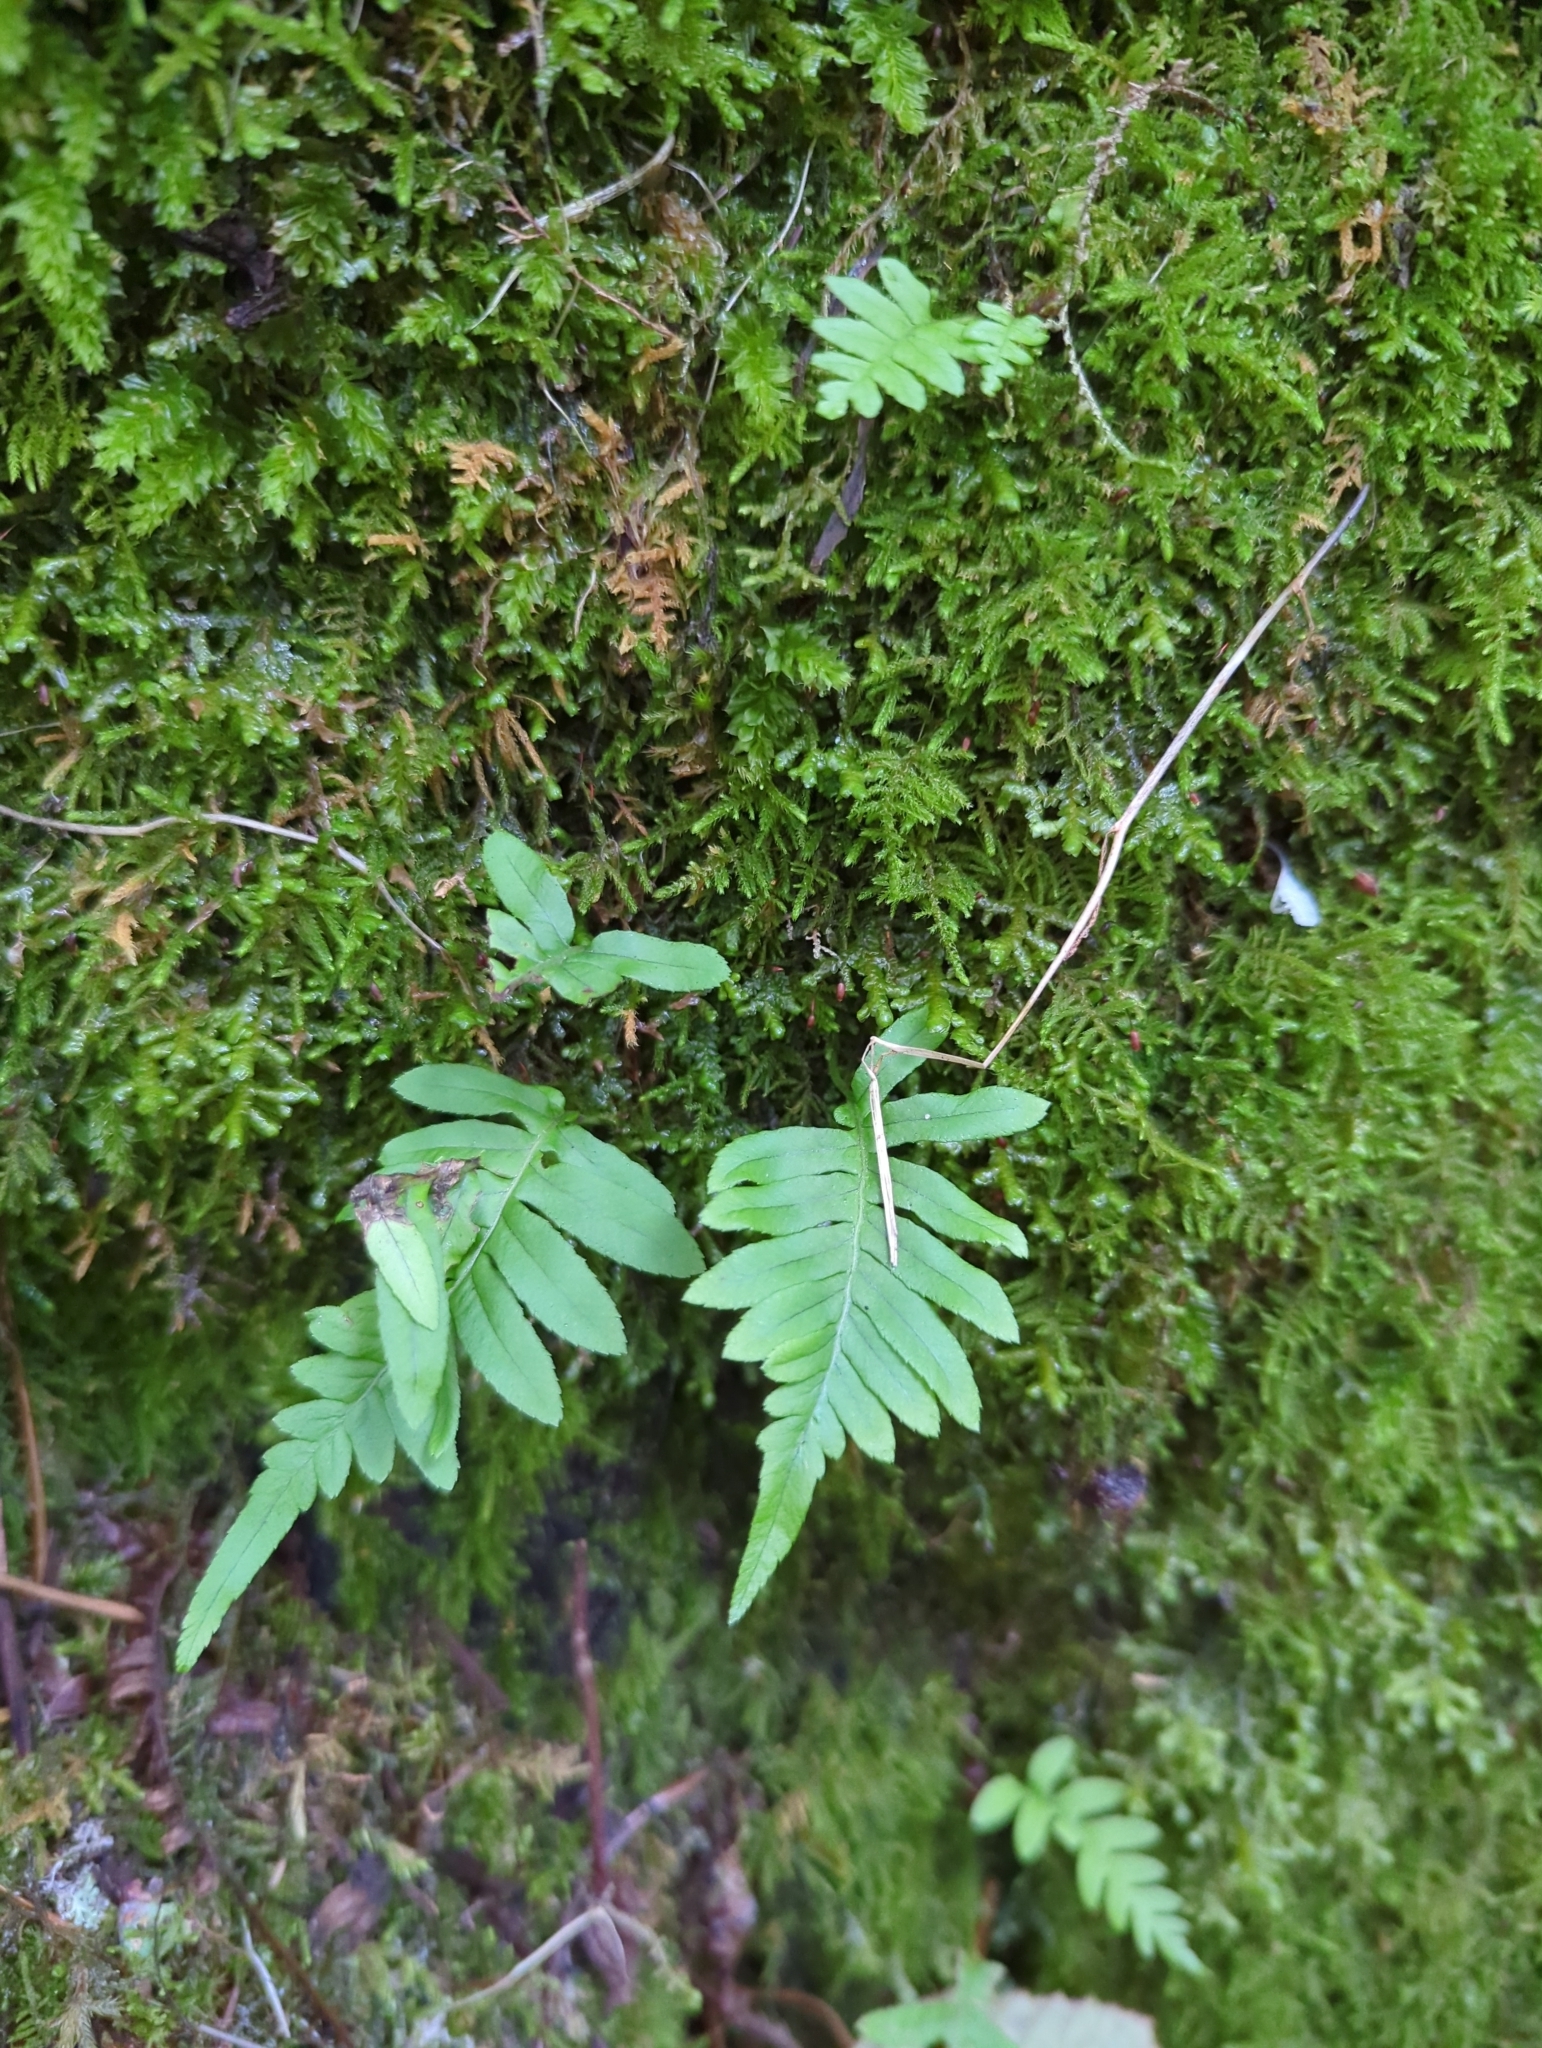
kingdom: Plantae
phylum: Tracheophyta
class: Polypodiopsida
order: Polypodiales
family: Polypodiaceae
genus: Polypodium
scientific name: Polypodium glycyrrhiza
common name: Licorice fern
